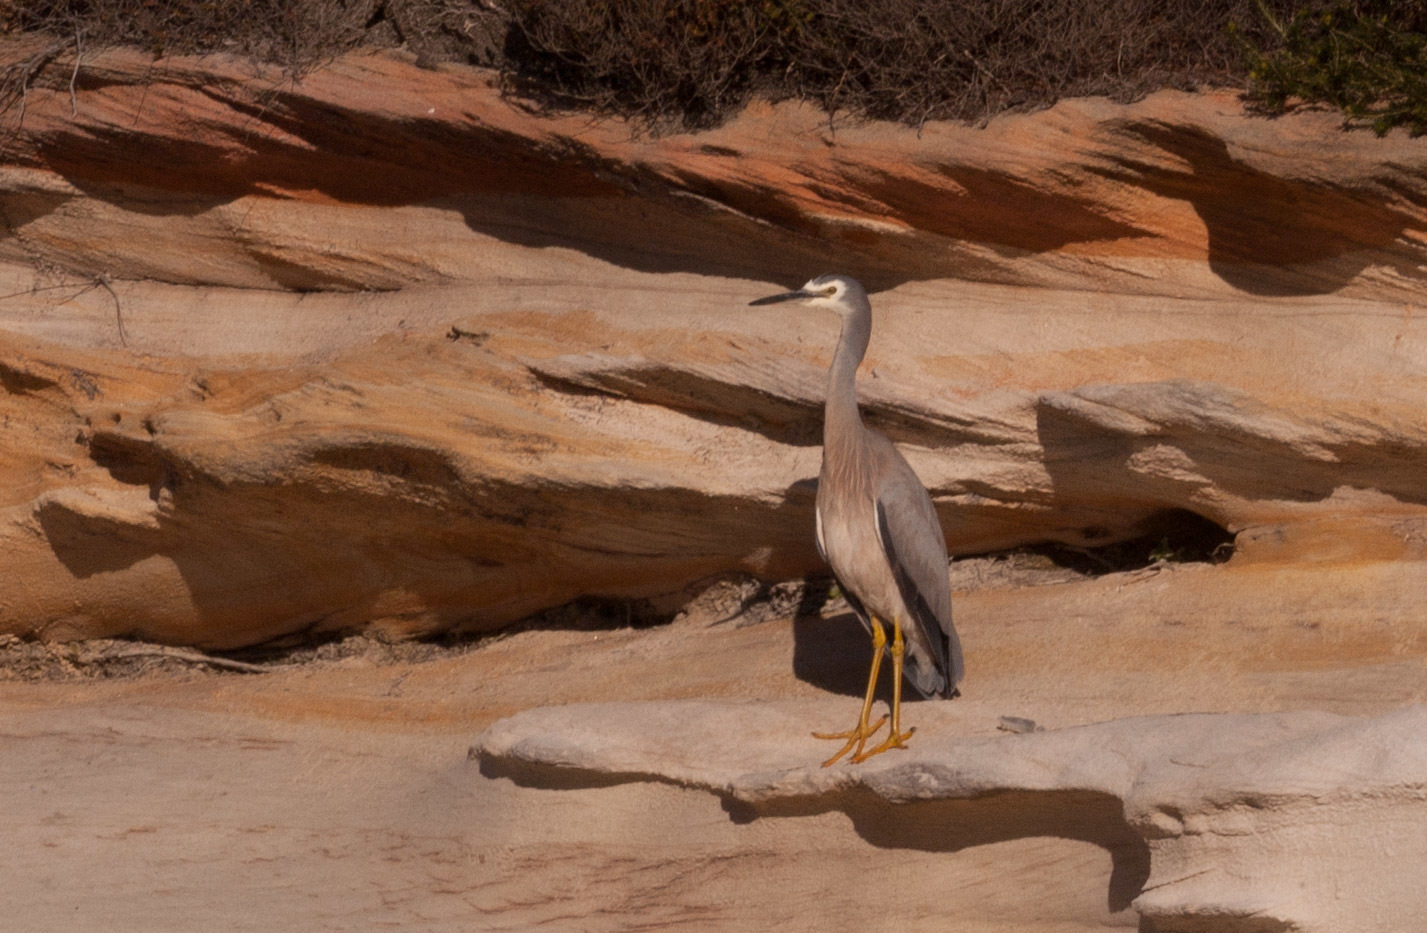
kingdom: Animalia
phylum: Chordata
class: Aves
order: Pelecaniformes
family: Ardeidae
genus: Egretta
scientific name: Egretta novaehollandiae
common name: White-faced heron
